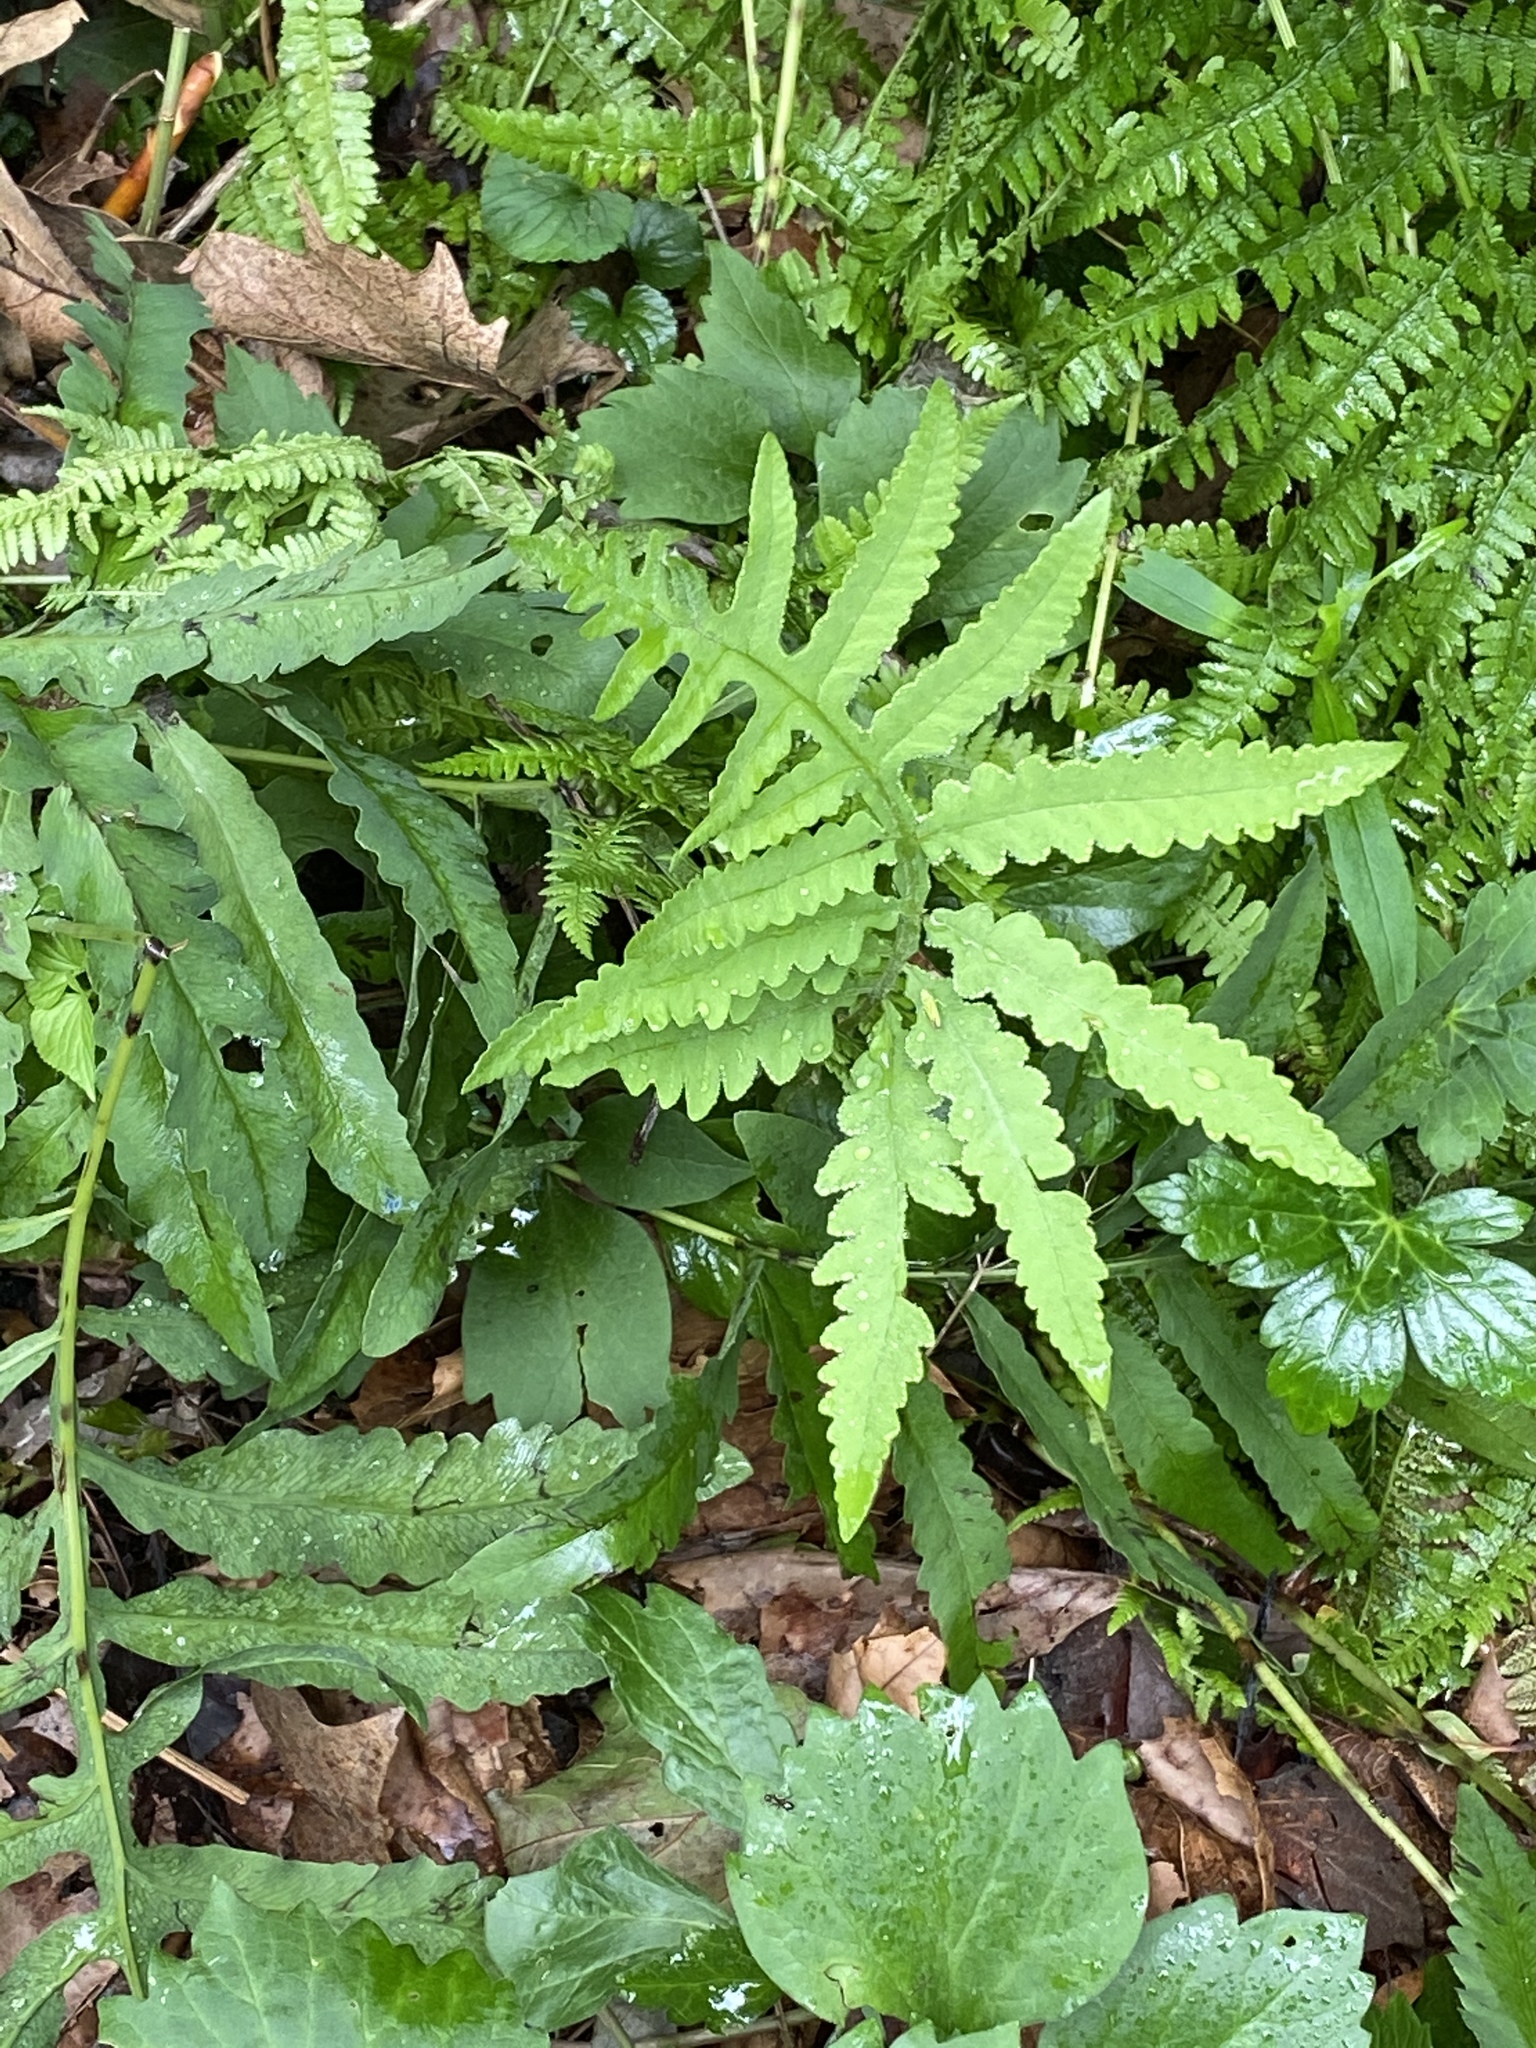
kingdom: Plantae
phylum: Tracheophyta
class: Polypodiopsida
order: Polypodiales
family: Onocleaceae
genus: Onoclea
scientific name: Onoclea sensibilis
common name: Sensitive fern
